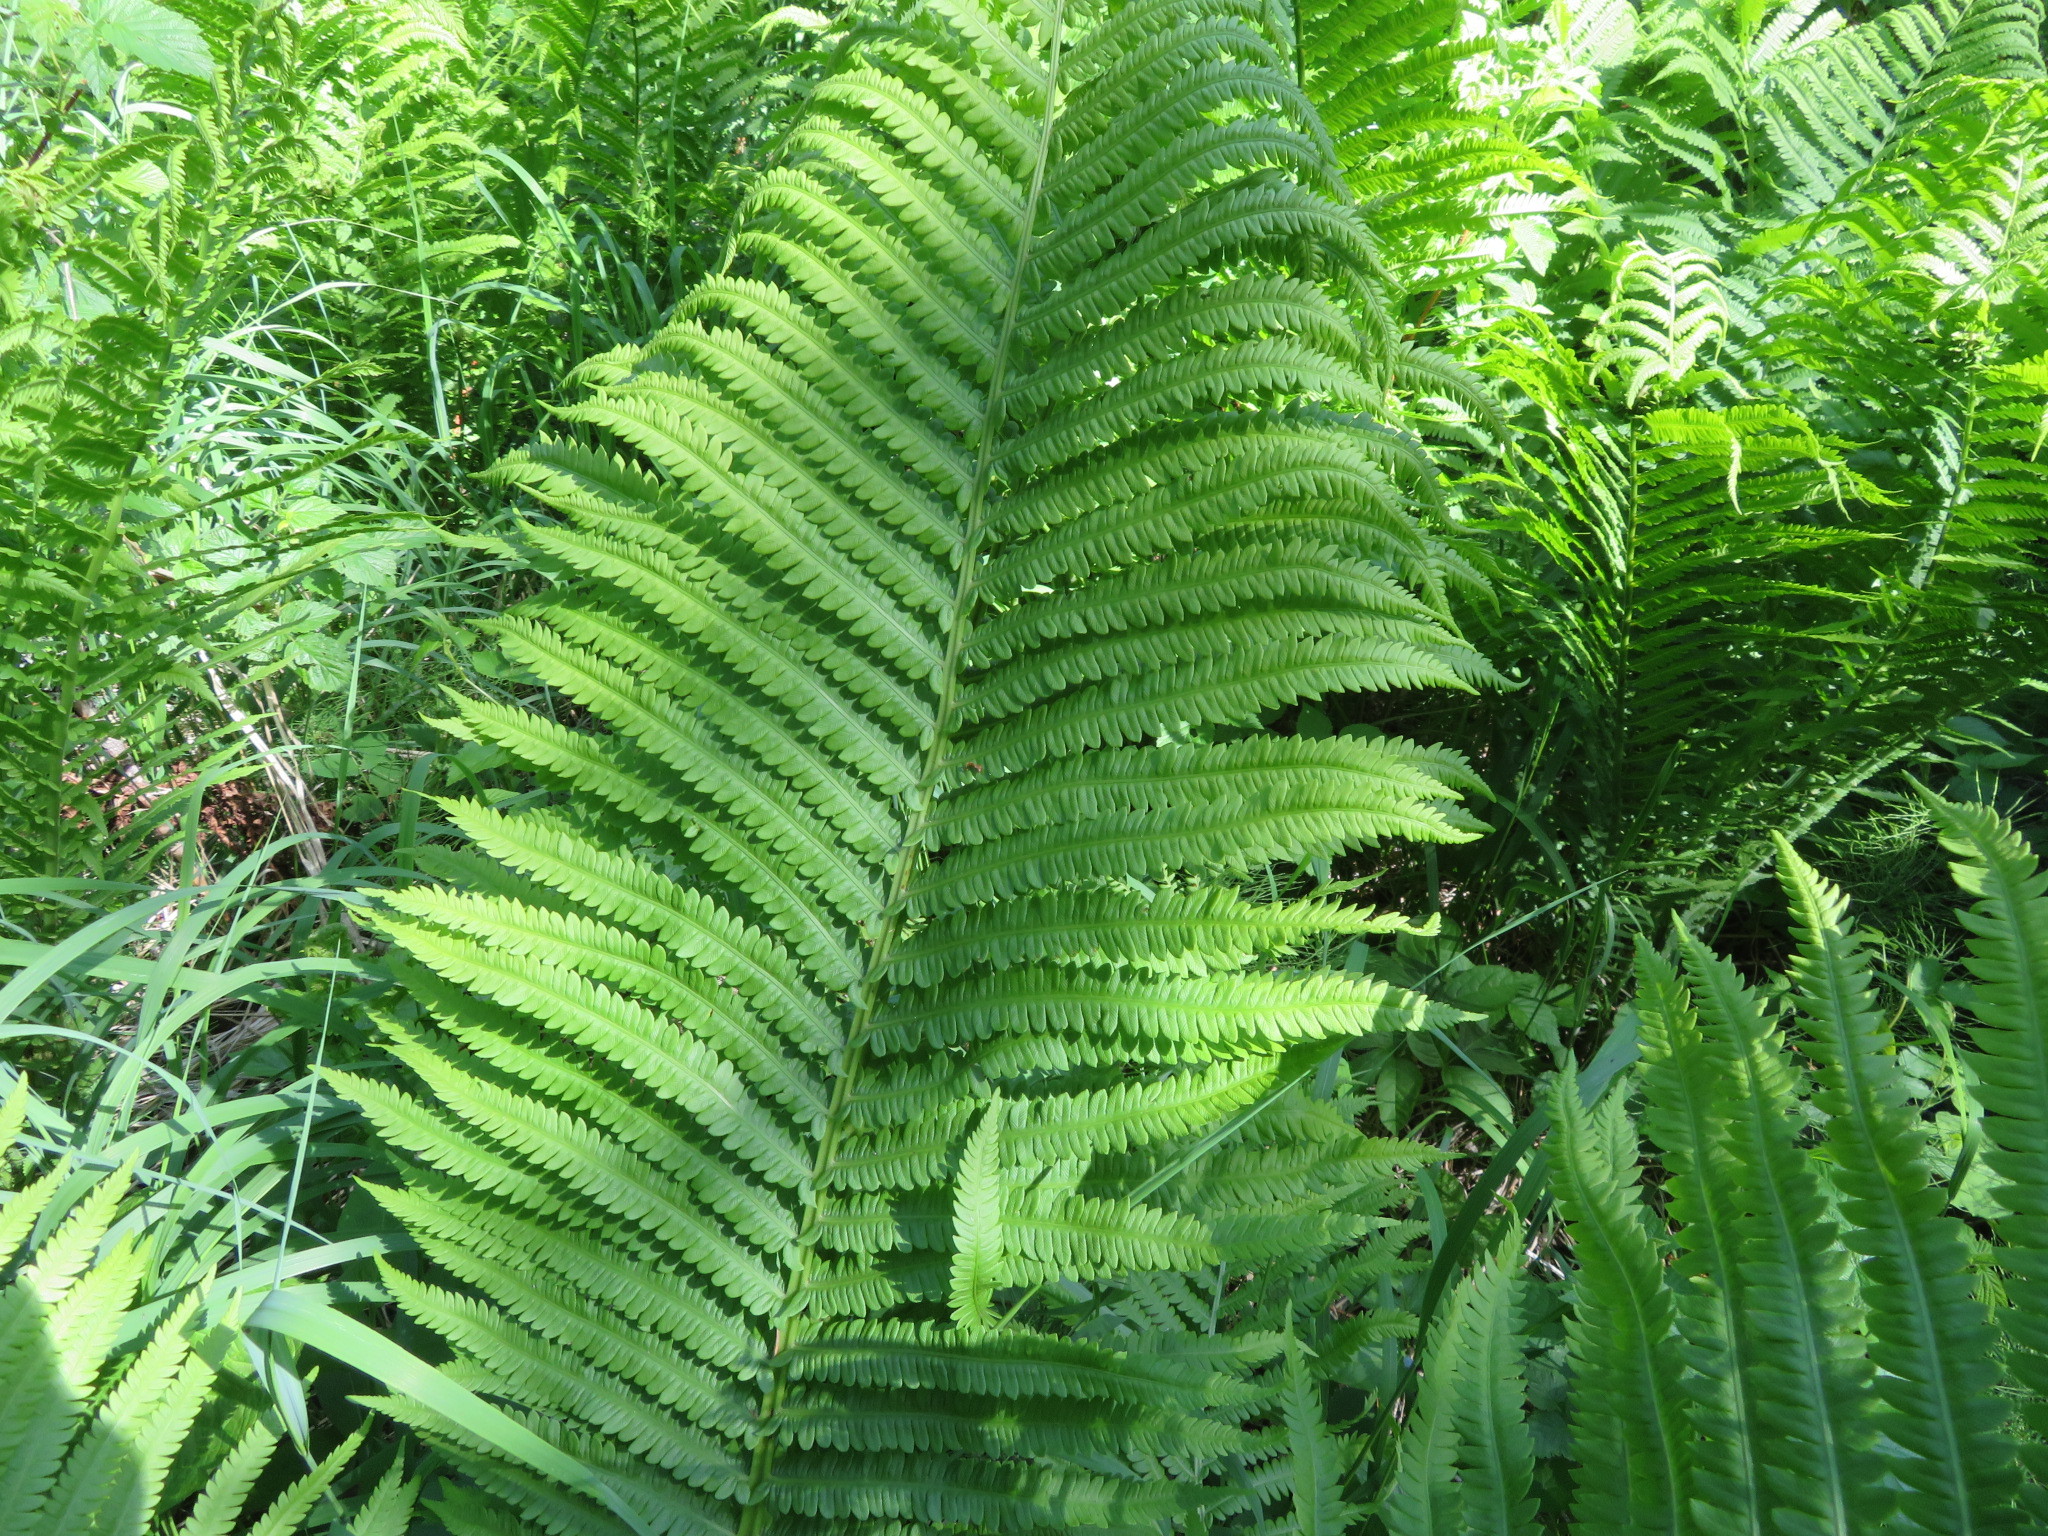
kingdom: Plantae
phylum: Tracheophyta
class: Polypodiopsida
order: Polypodiales
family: Onocleaceae
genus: Matteuccia
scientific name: Matteuccia struthiopteris
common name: Ostrich fern
